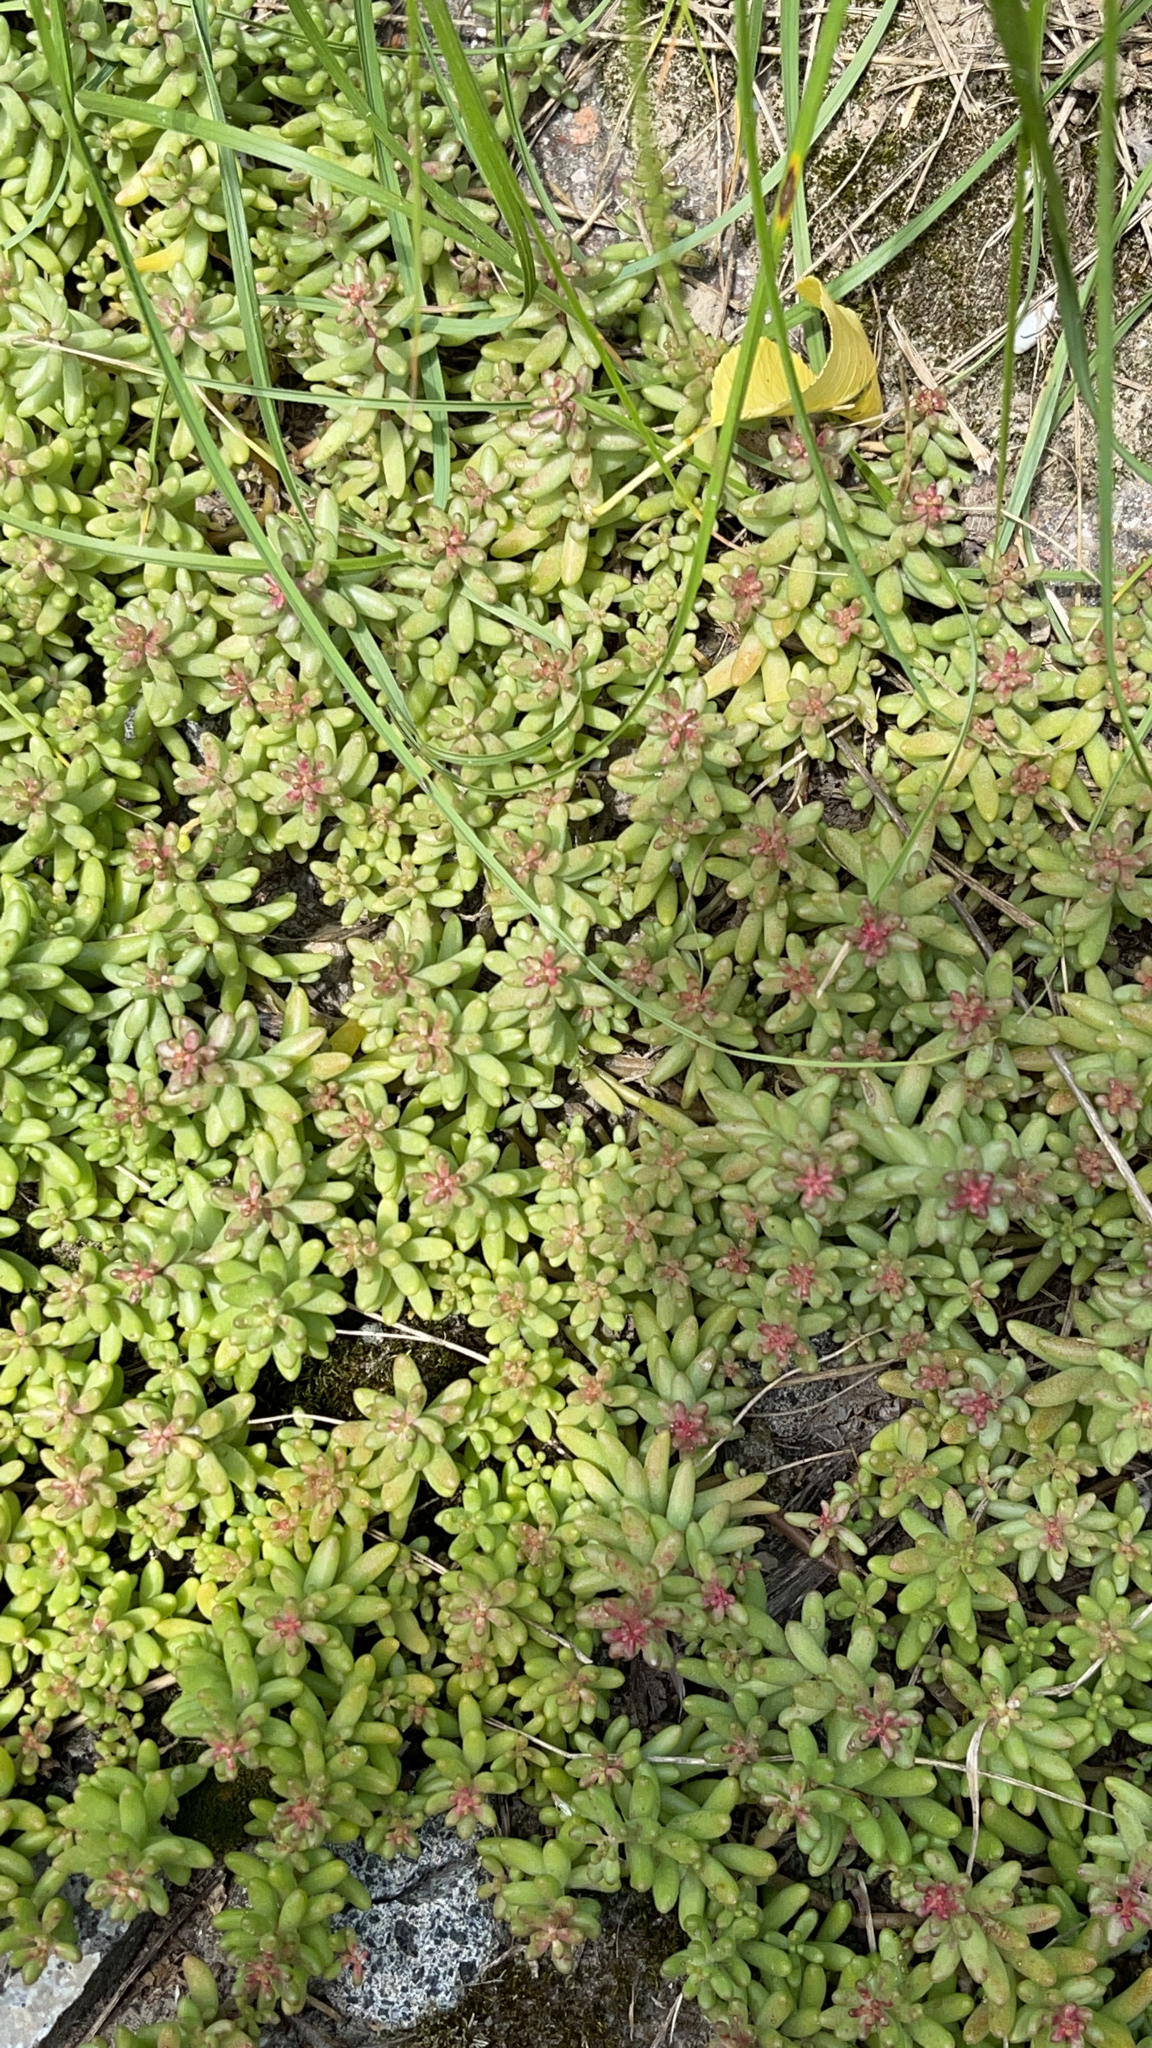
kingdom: Plantae
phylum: Tracheophyta
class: Magnoliopsida
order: Saxifragales
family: Crassulaceae
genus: Sedum
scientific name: Sedum album
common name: White stonecrop
